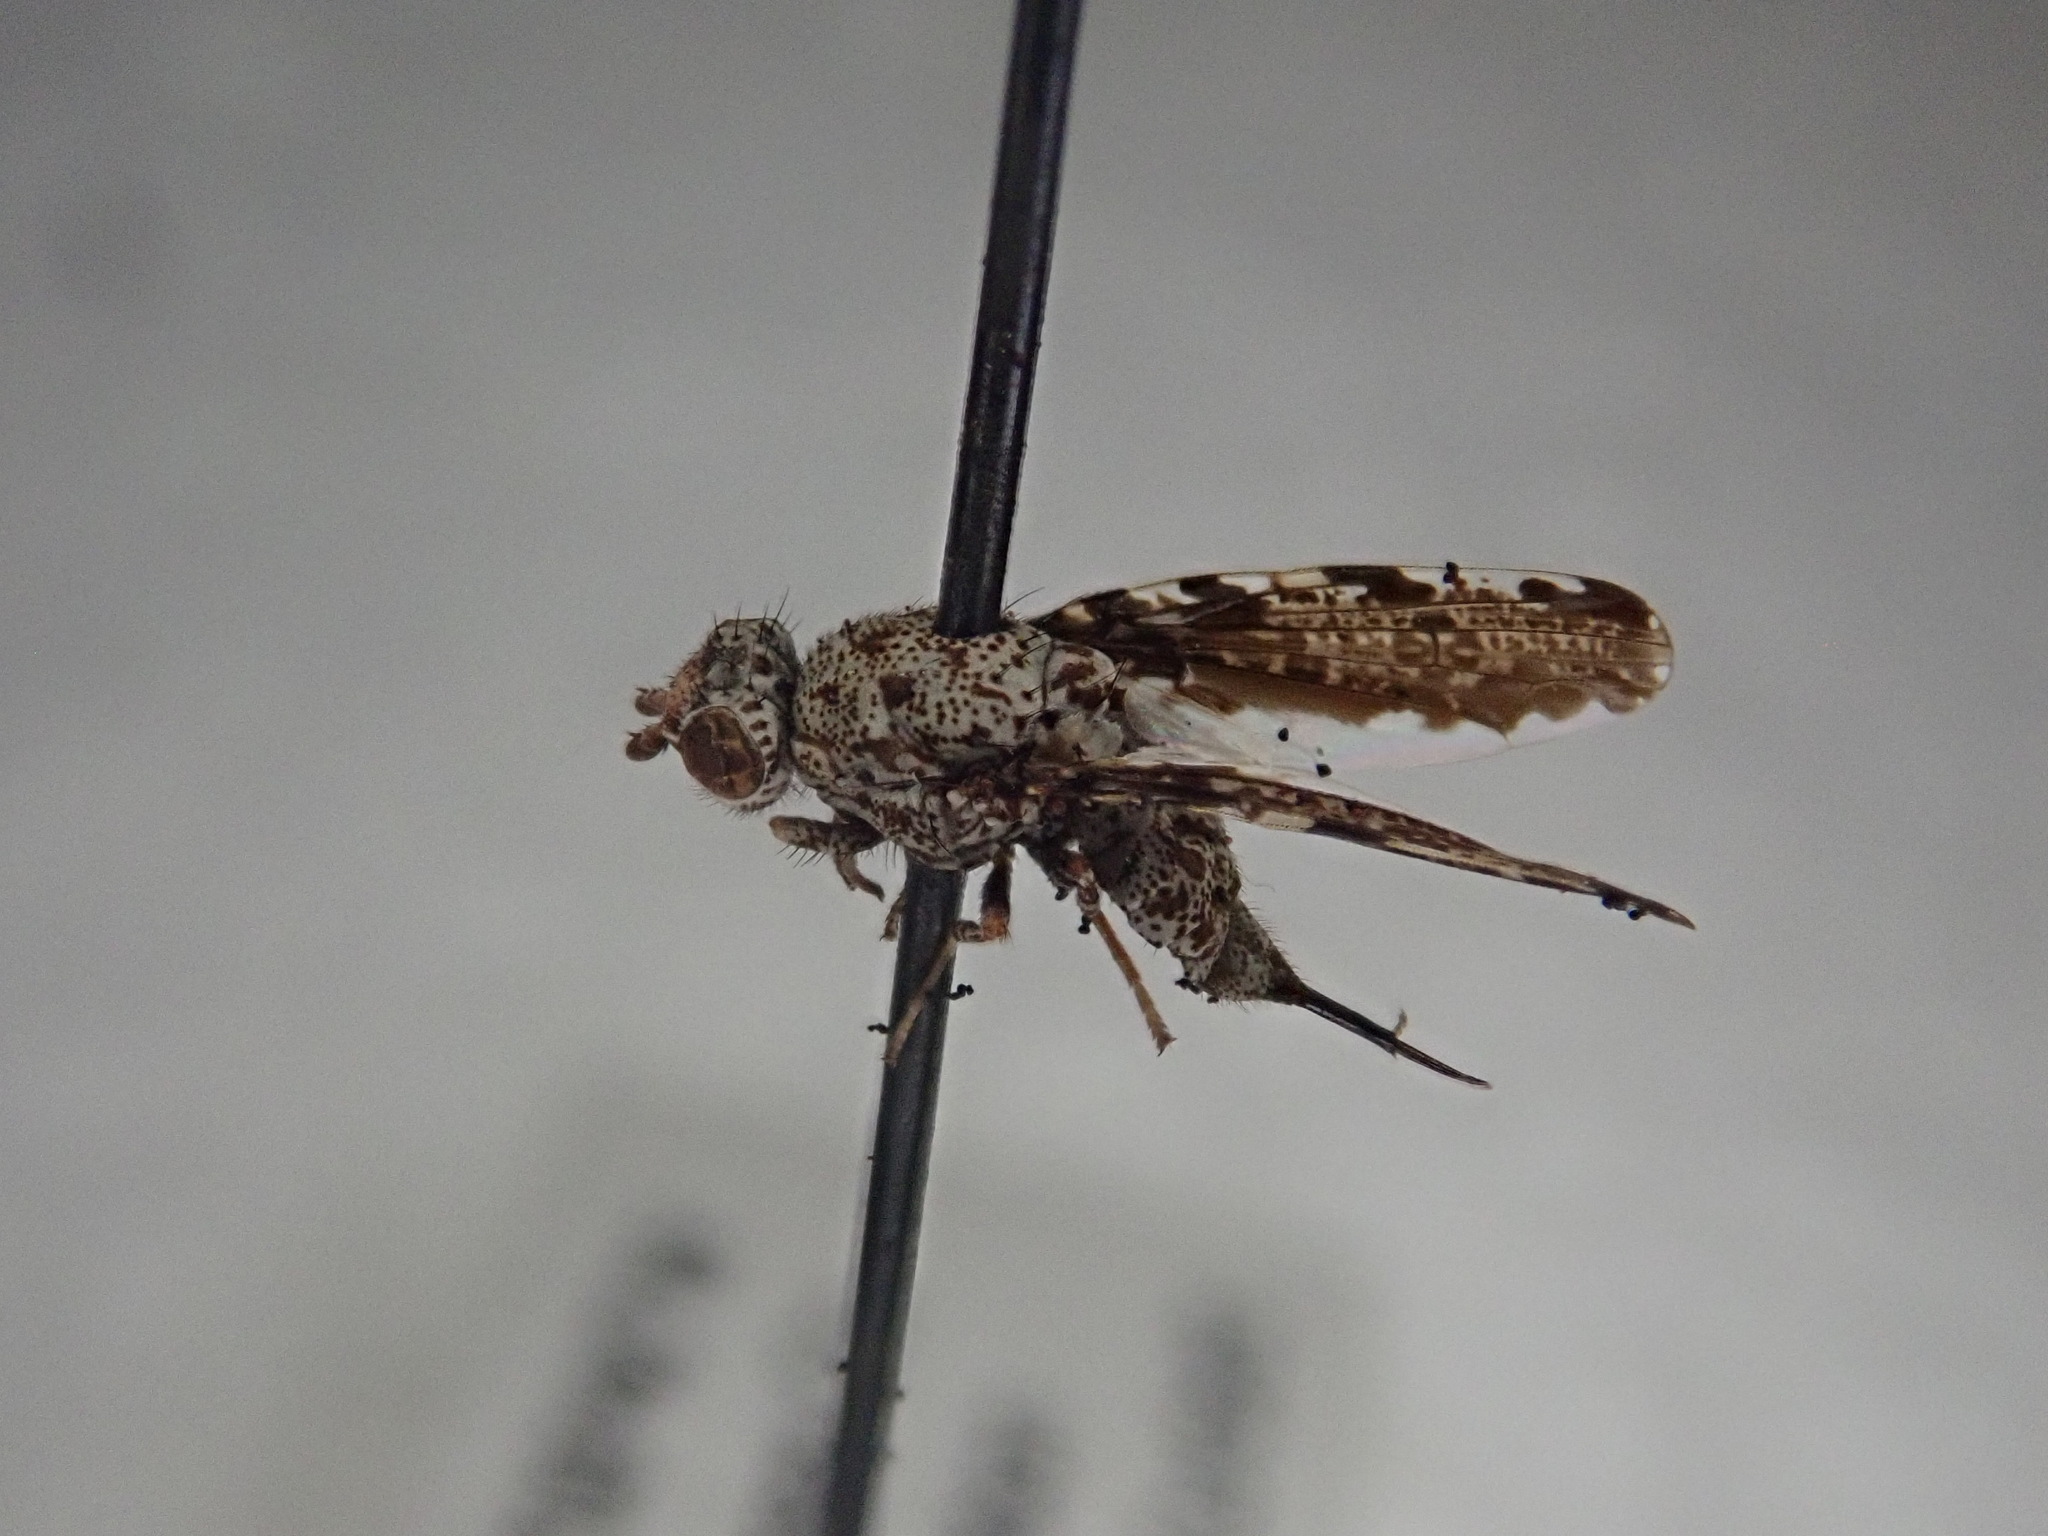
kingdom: Animalia
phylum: Arthropoda
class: Insecta
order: Diptera
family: Ulidiidae
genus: Callopistromyia
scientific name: Callopistromyia strigula
